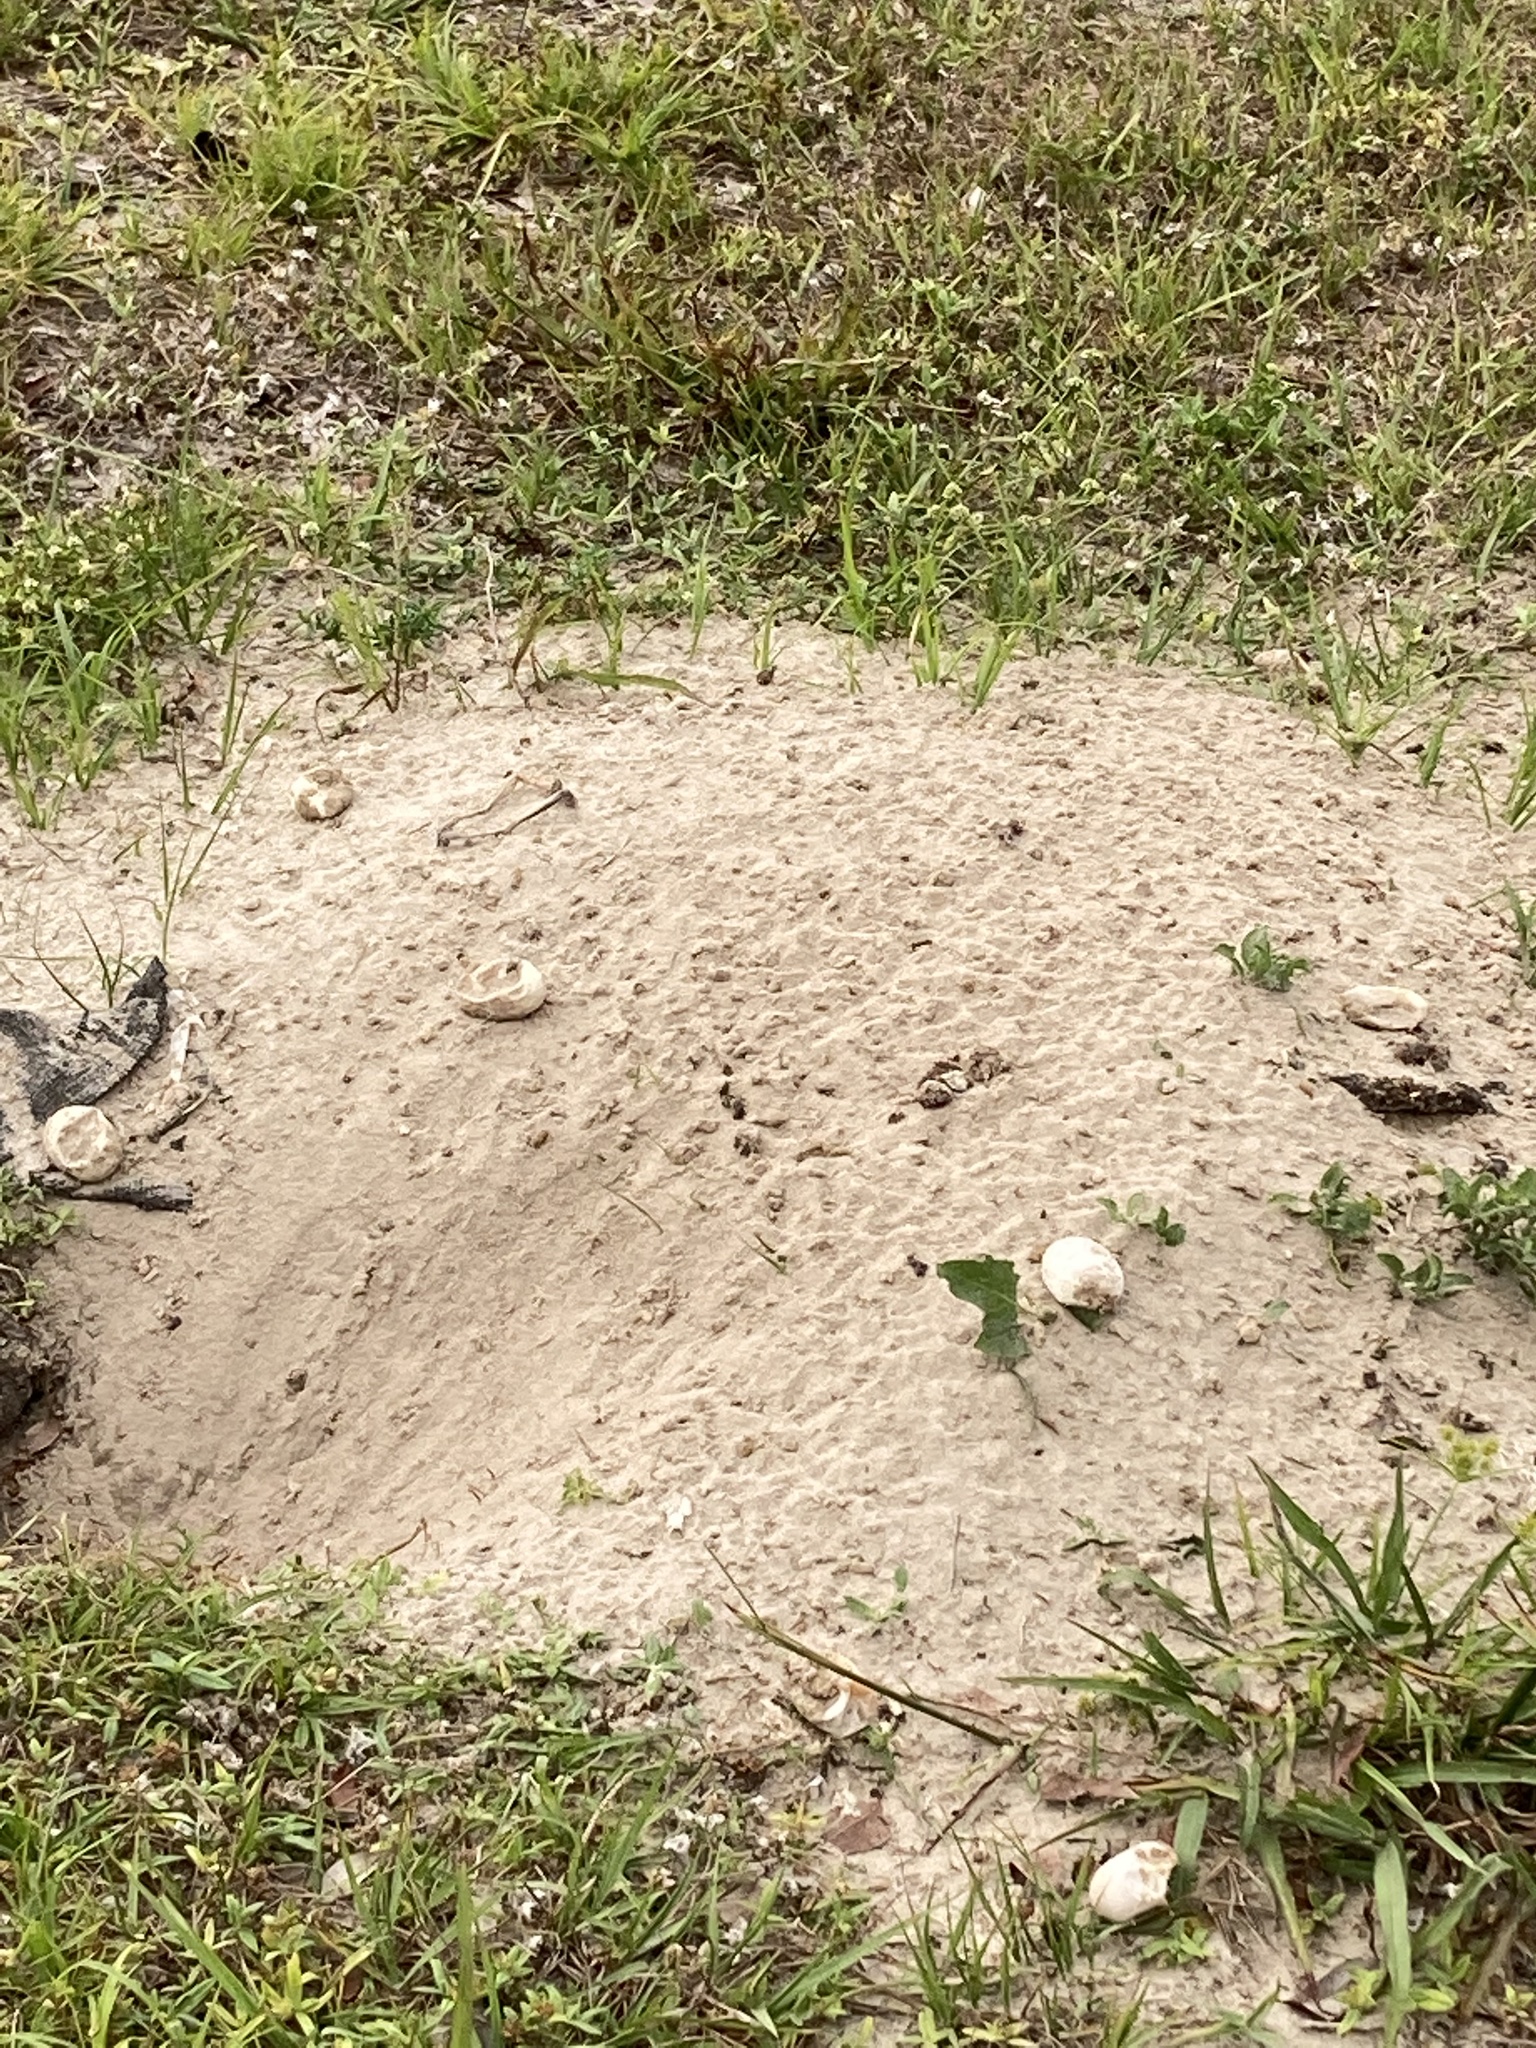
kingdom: Animalia
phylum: Chordata
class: Testudines
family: Testudinidae
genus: Gopherus
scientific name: Gopherus polyphemus
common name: Florida gopher tortoise
